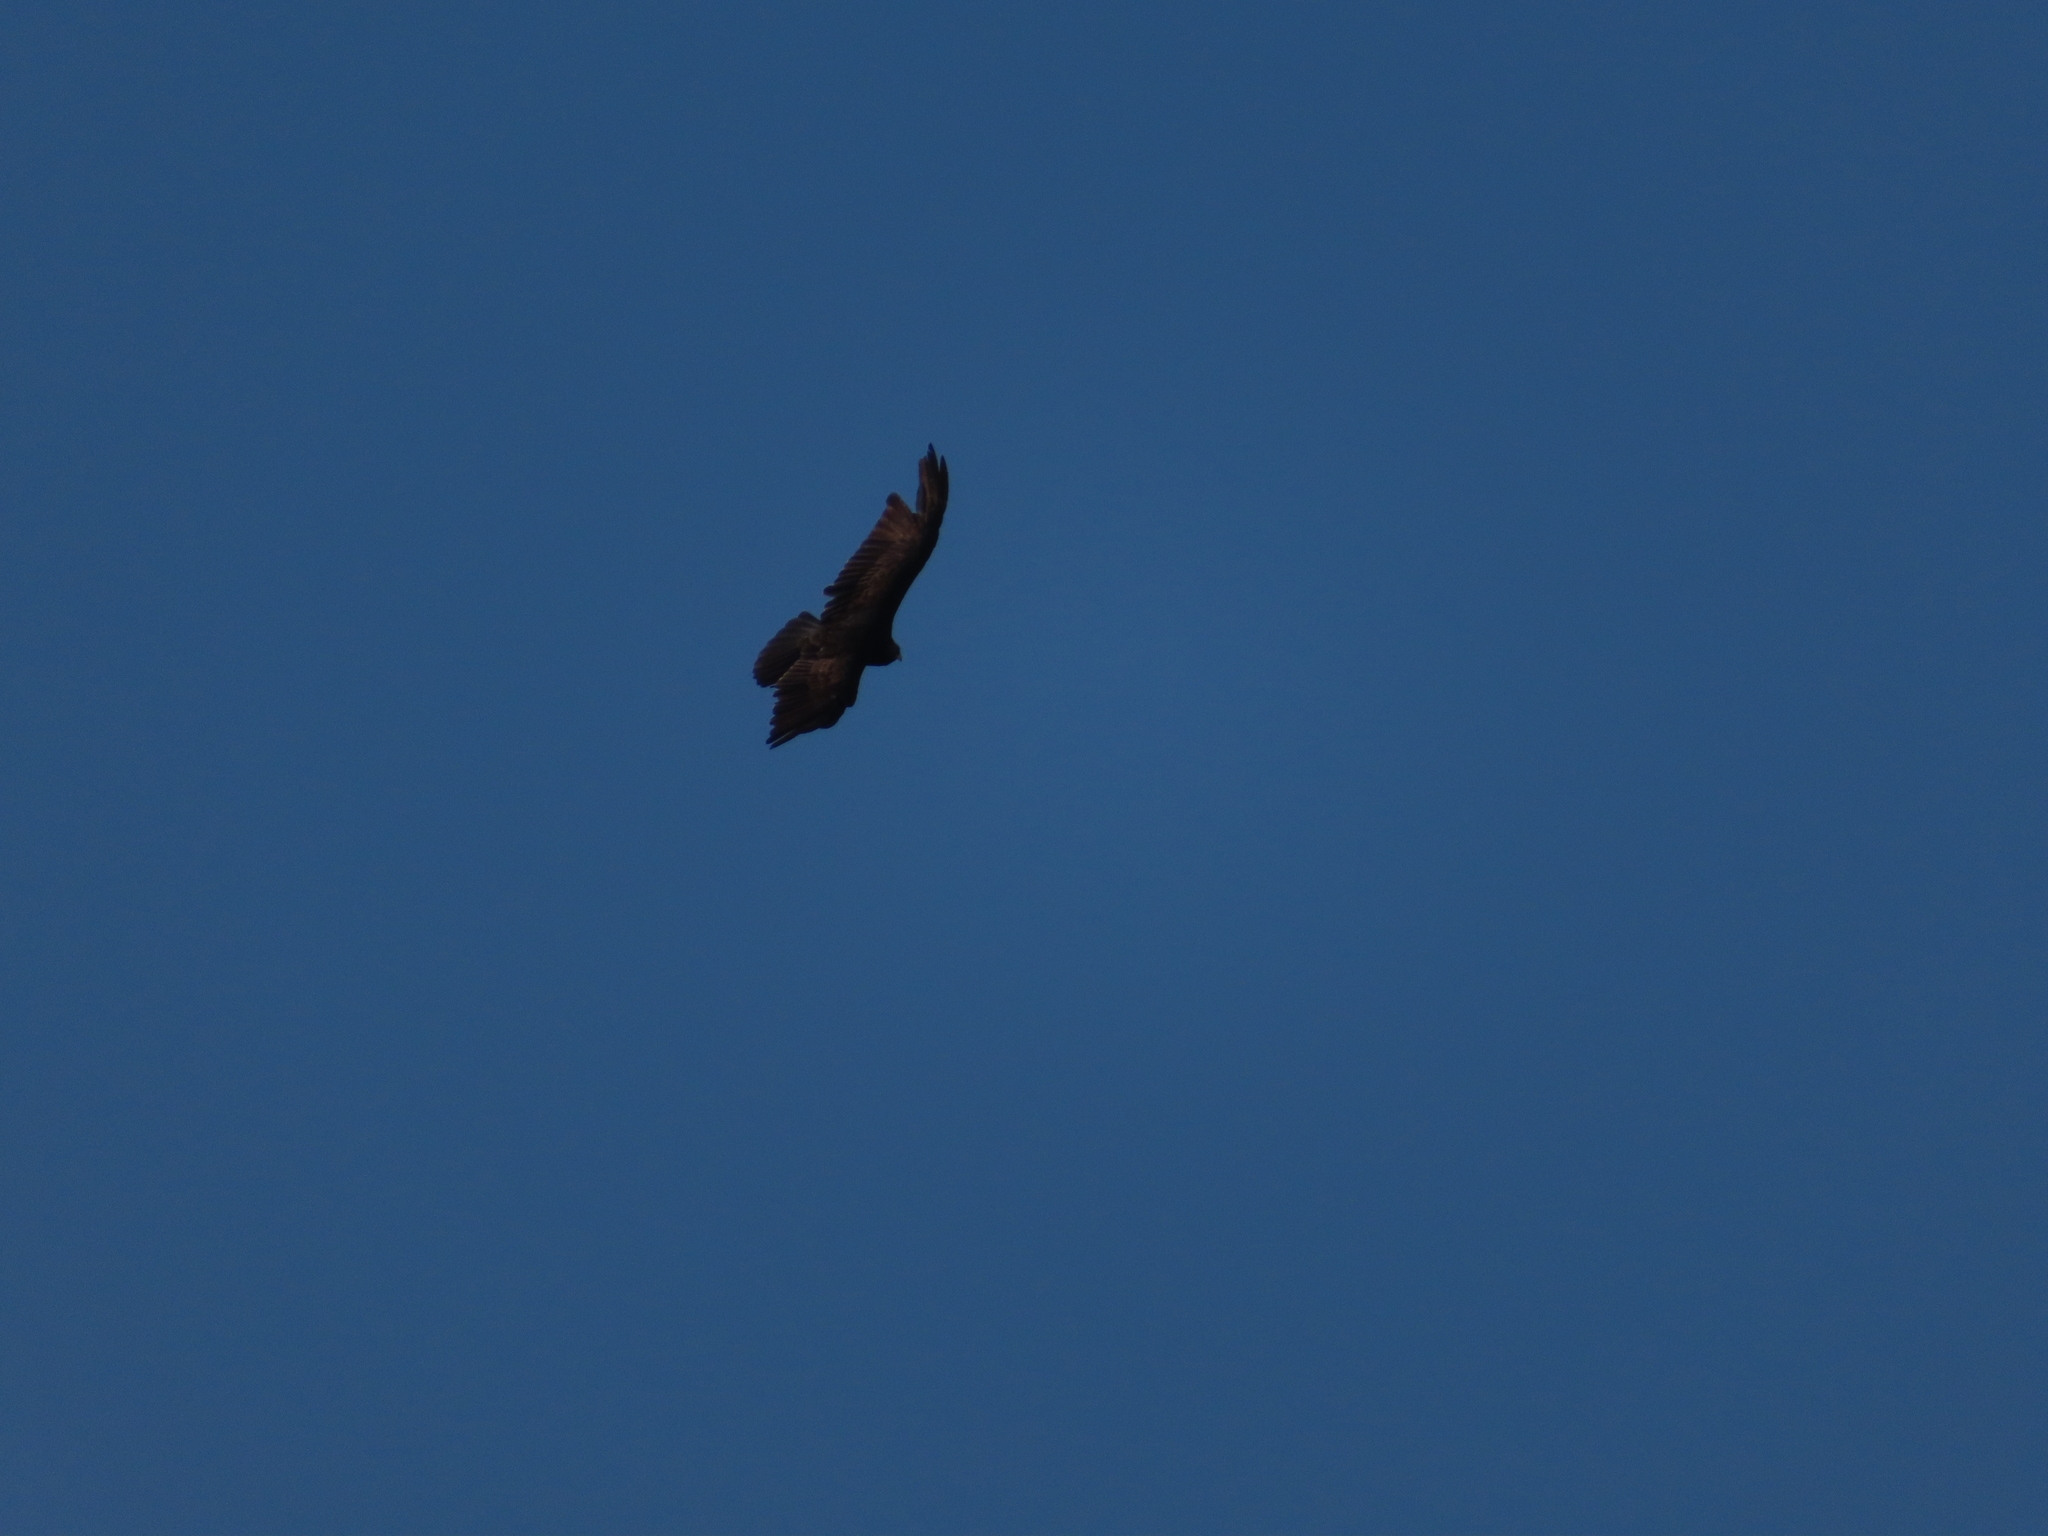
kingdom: Animalia
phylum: Chordata
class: Aves
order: Accipitriformes
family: Cathartidae
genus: Cathartes
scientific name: Cathartes aura
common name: Turkey vulture
